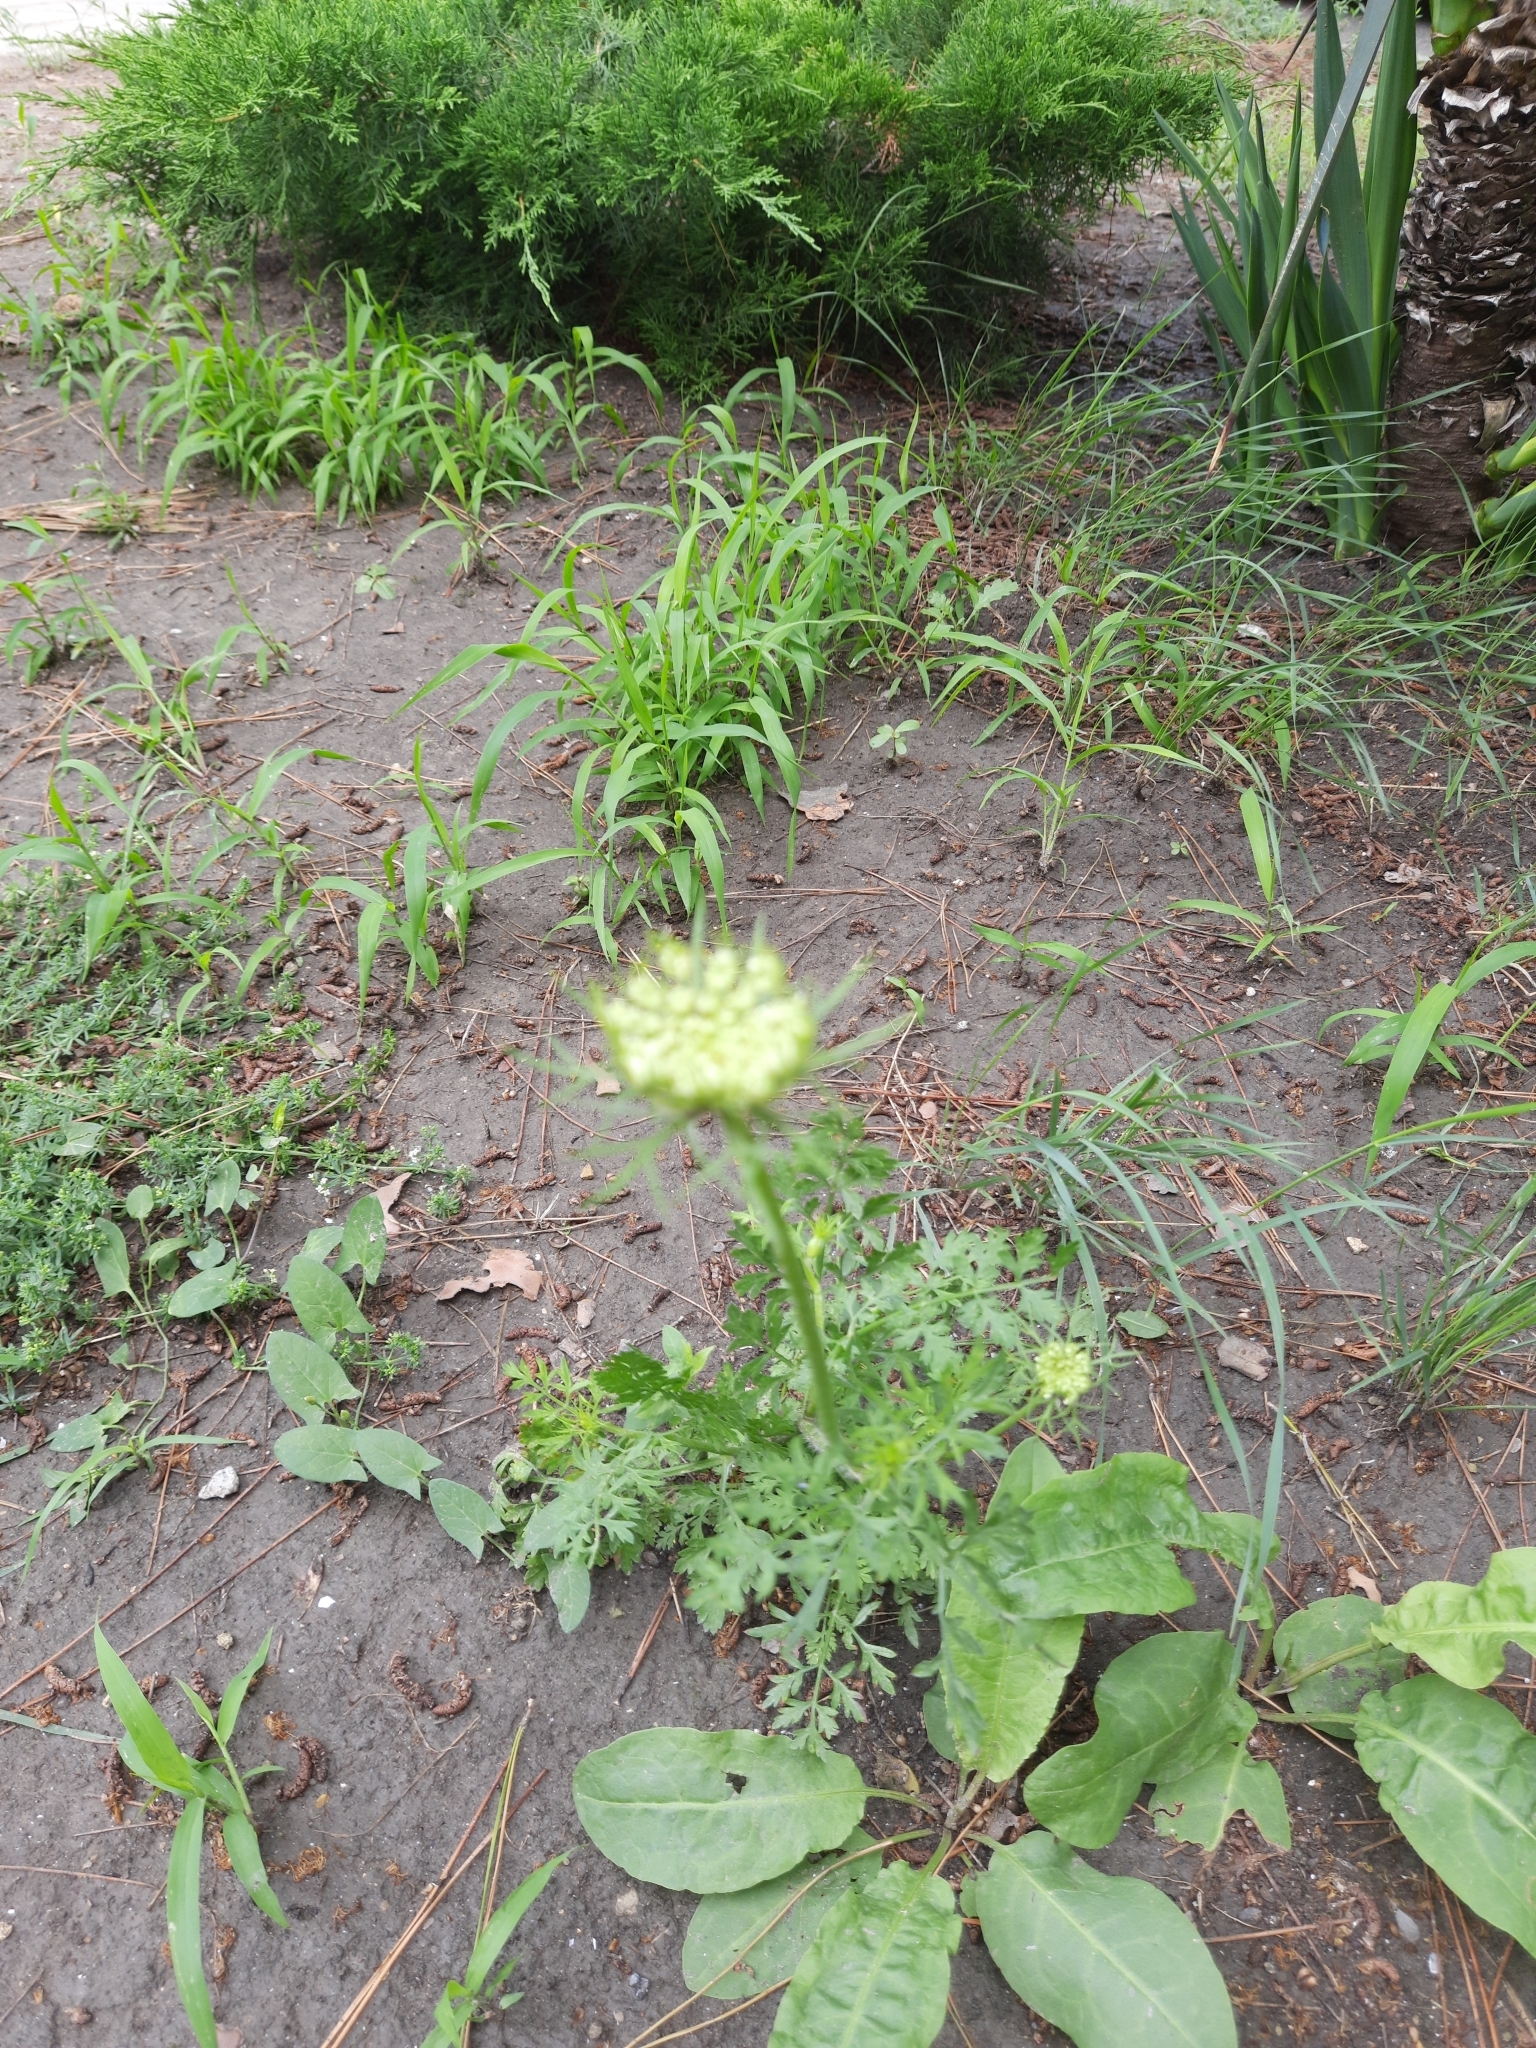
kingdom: Plantae
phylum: Tracheophyta
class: Magnoliopsida
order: Apiales
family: Apiaceae
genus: Daucus
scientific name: Daucus carota
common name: Wild carrot
